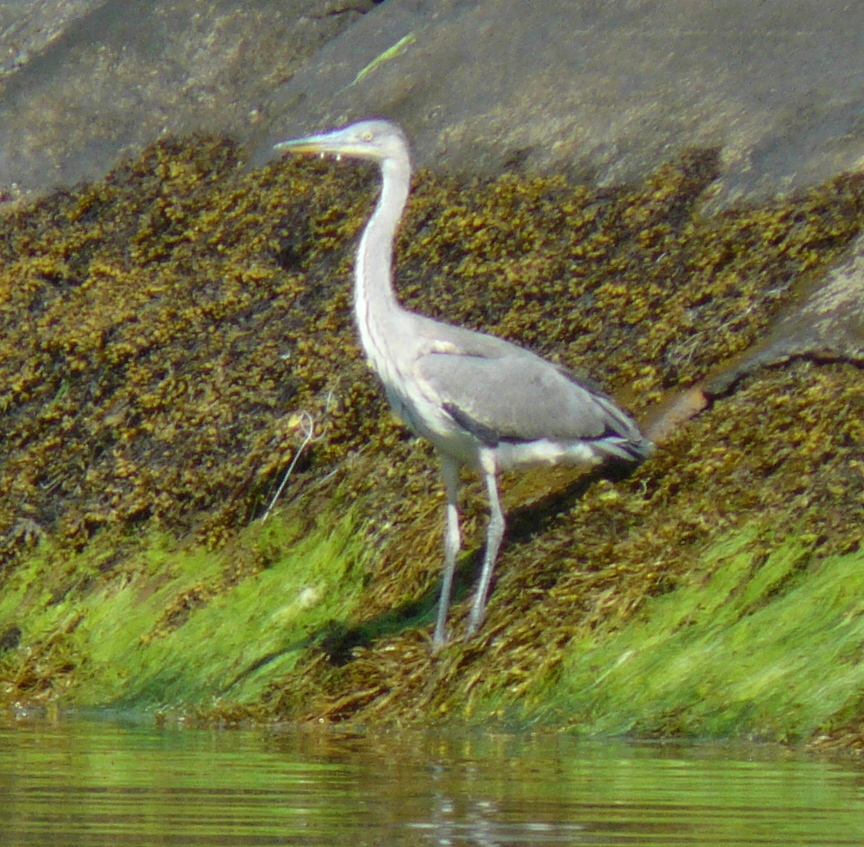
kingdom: Animalia
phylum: Chordata
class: Aves
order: Pelecaniformes
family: Ardeidae
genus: Ardea
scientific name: Ardea cinerea
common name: Grey heron
